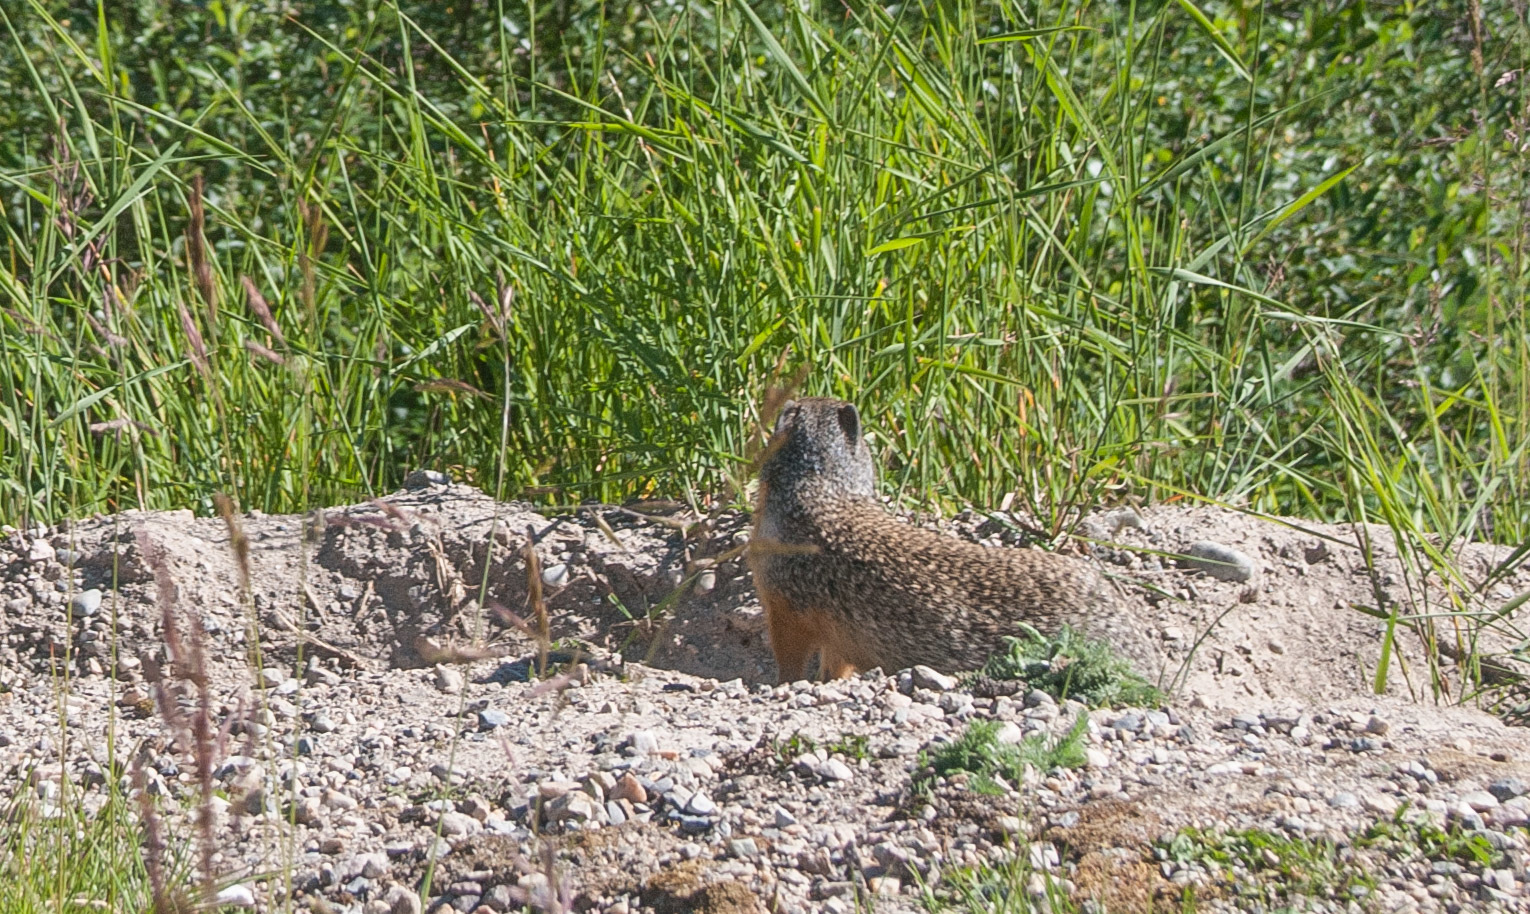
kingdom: Animalia
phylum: Chordata
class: Mammalia
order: Rodentia
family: Sciuridae
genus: Urocitellus
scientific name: Urocitellus columbianus
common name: Columbian ground squirrel
